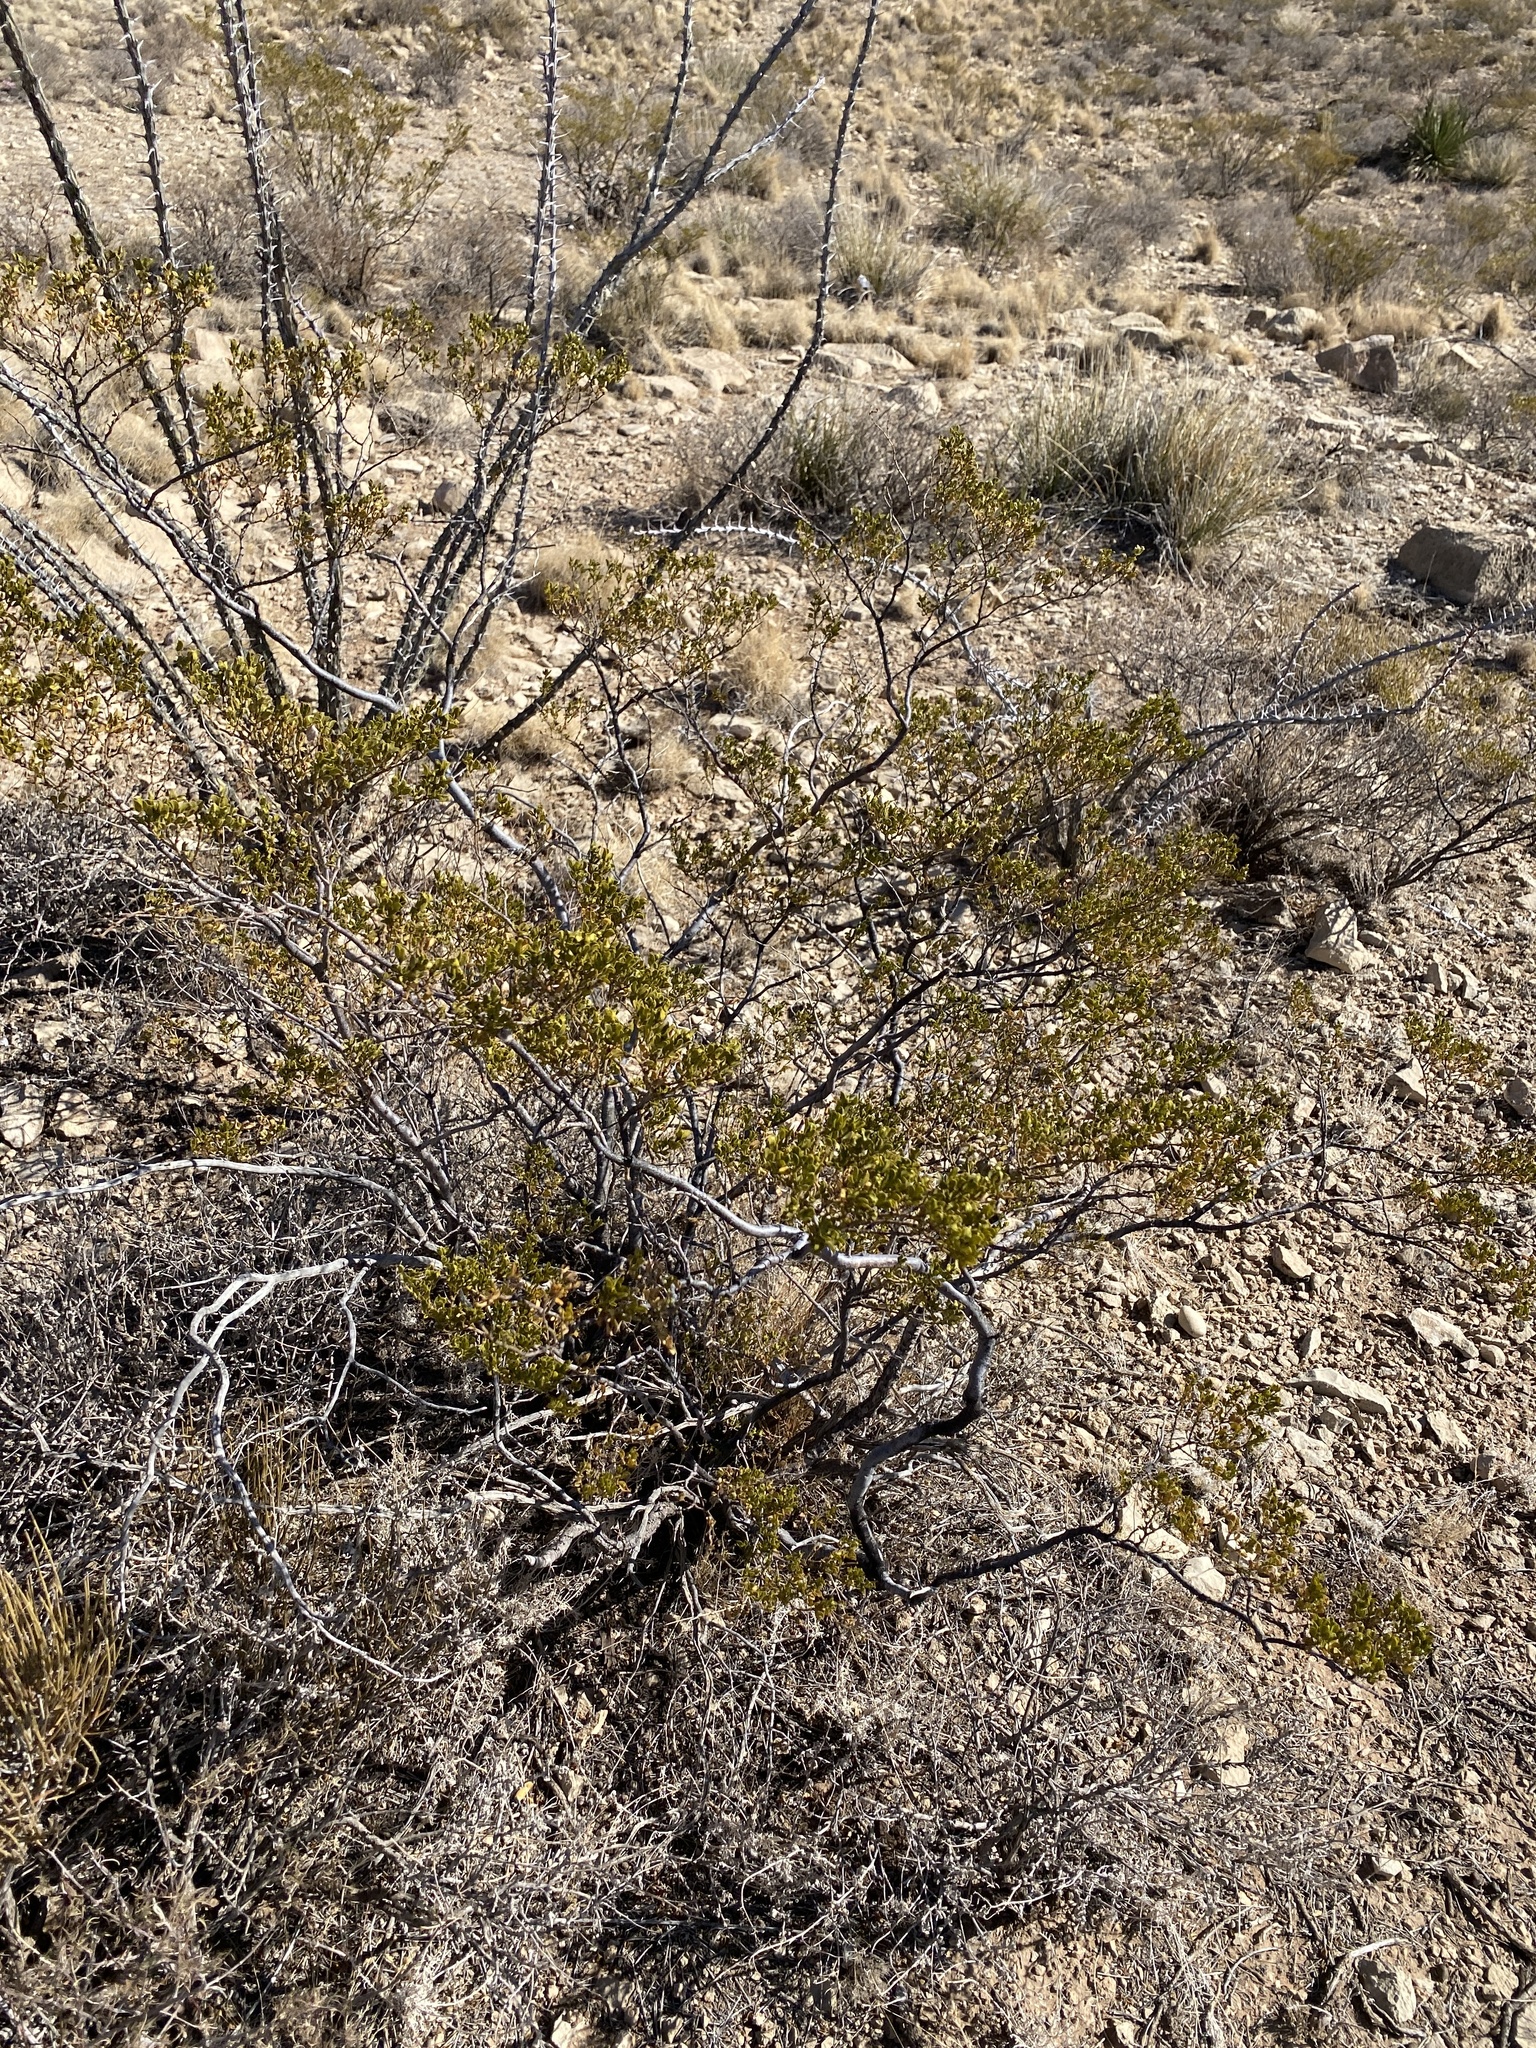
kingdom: Plantae
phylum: Tracheophyta
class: Magnoliopsida
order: Zygophyllales
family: Zygophyllaceae
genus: Larrea
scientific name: Larrea tridentata
